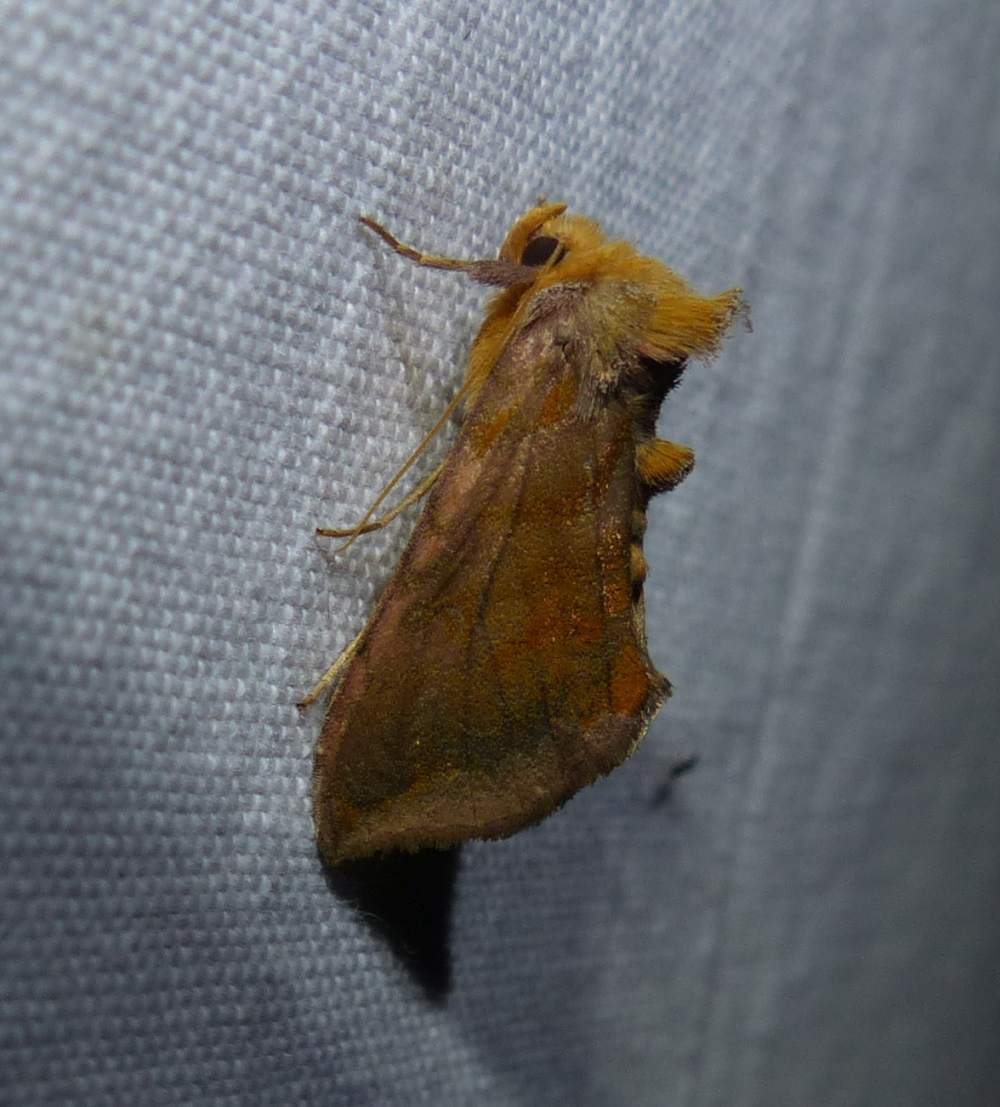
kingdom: Animalia
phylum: Arthropoda
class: Insecta
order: Lepidoptera
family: Noctuidae
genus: Allagrapha
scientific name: Allagrapha aerea
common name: Unspotted looper moth
